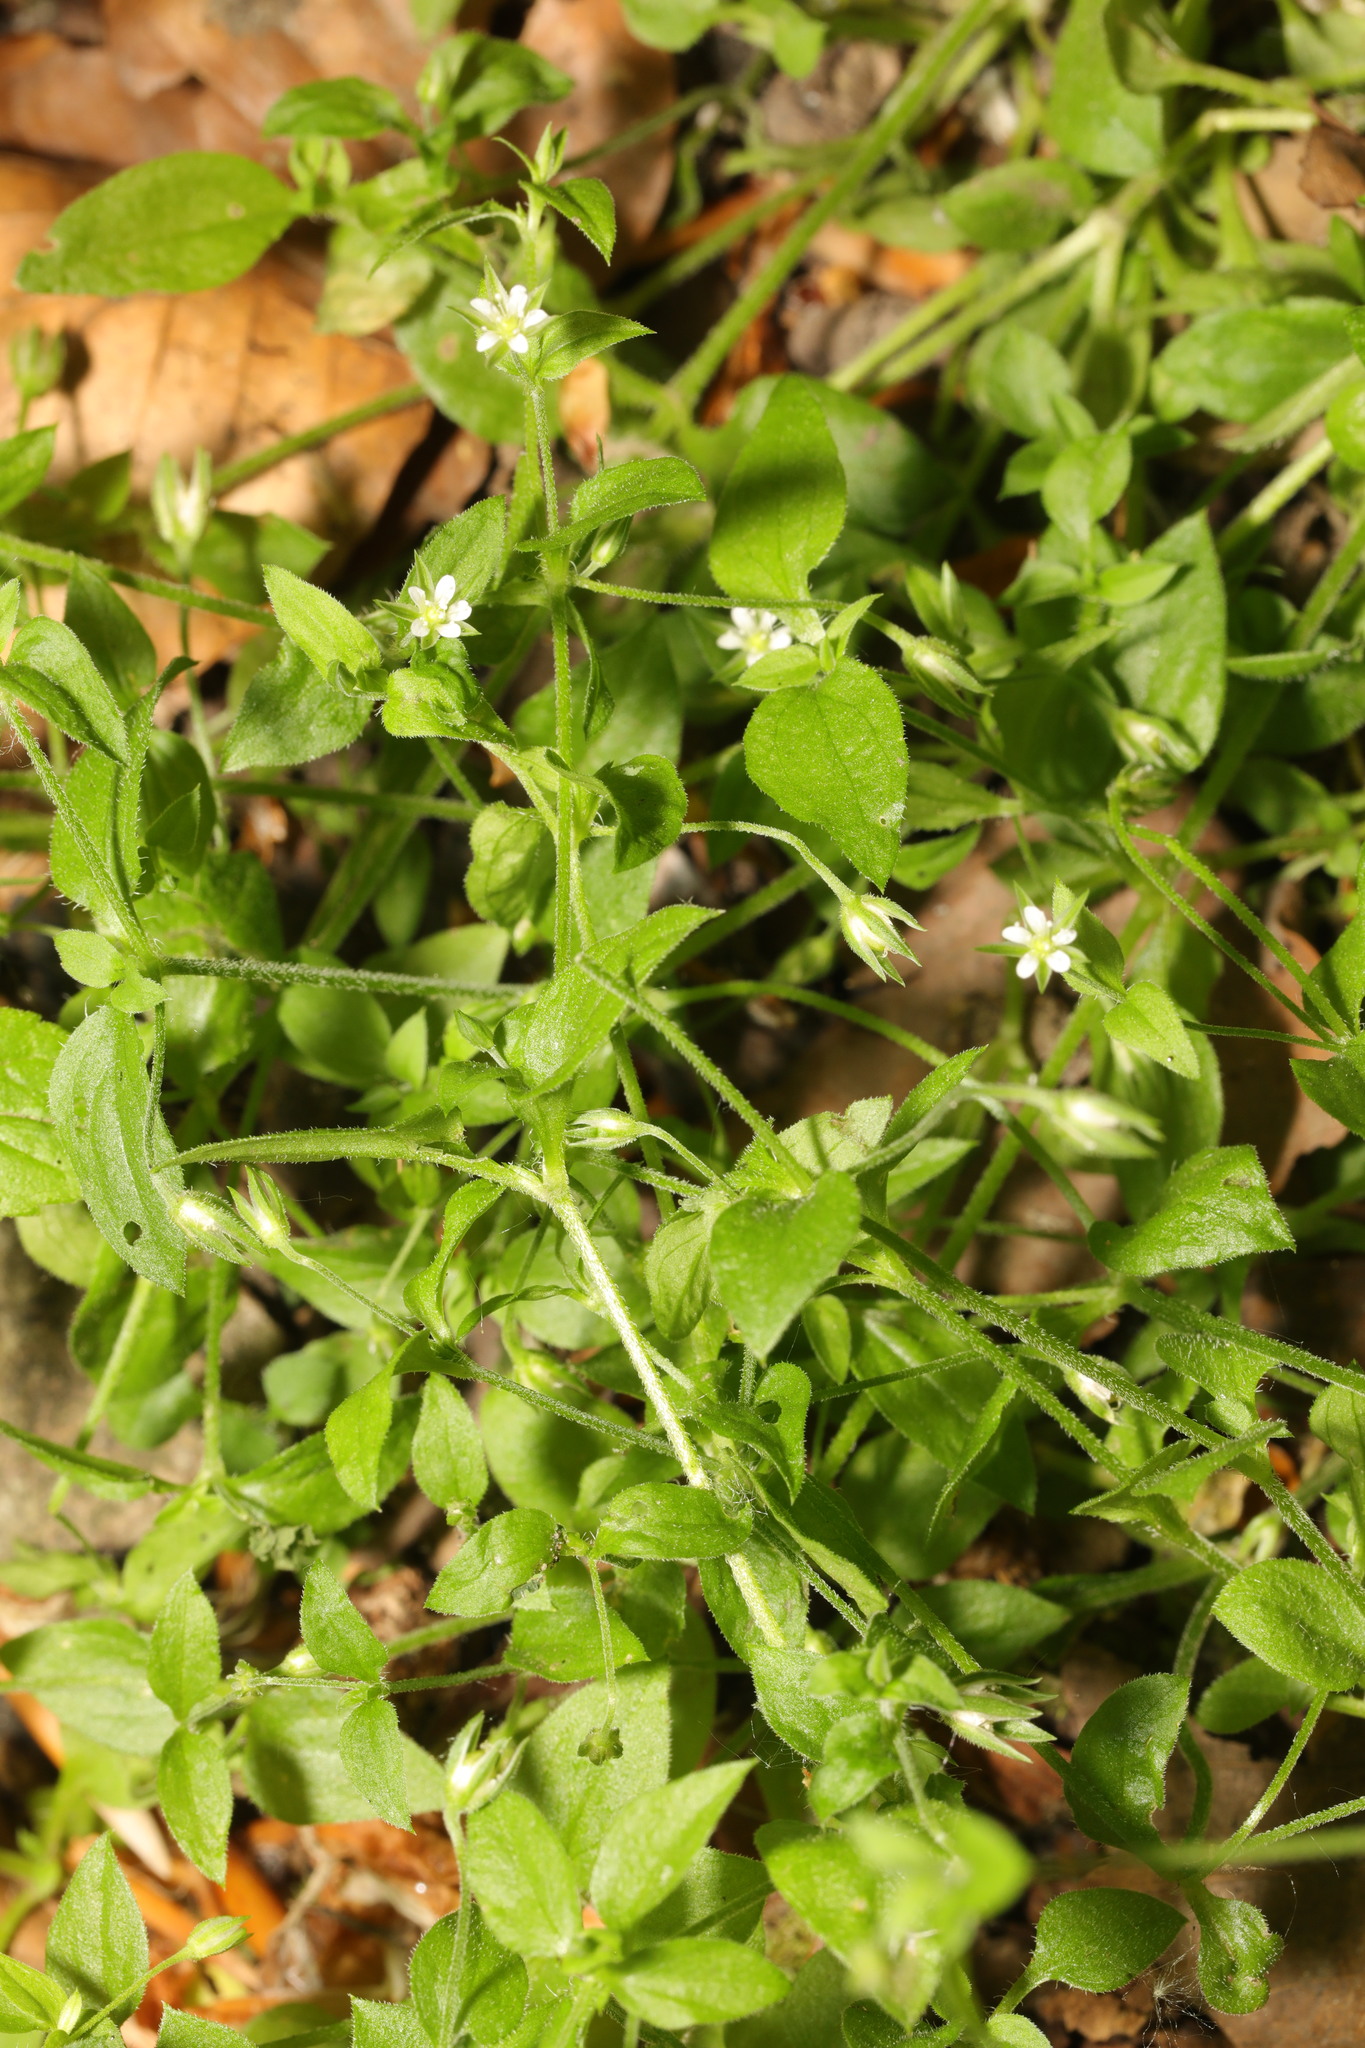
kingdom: Plantae
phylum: Tracheophyta
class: Magnoliopsida
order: Caryophyllales
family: Caryophyllaceae
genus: Moehringia
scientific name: Moehringia trinervia
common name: Three-nerved sandwort
